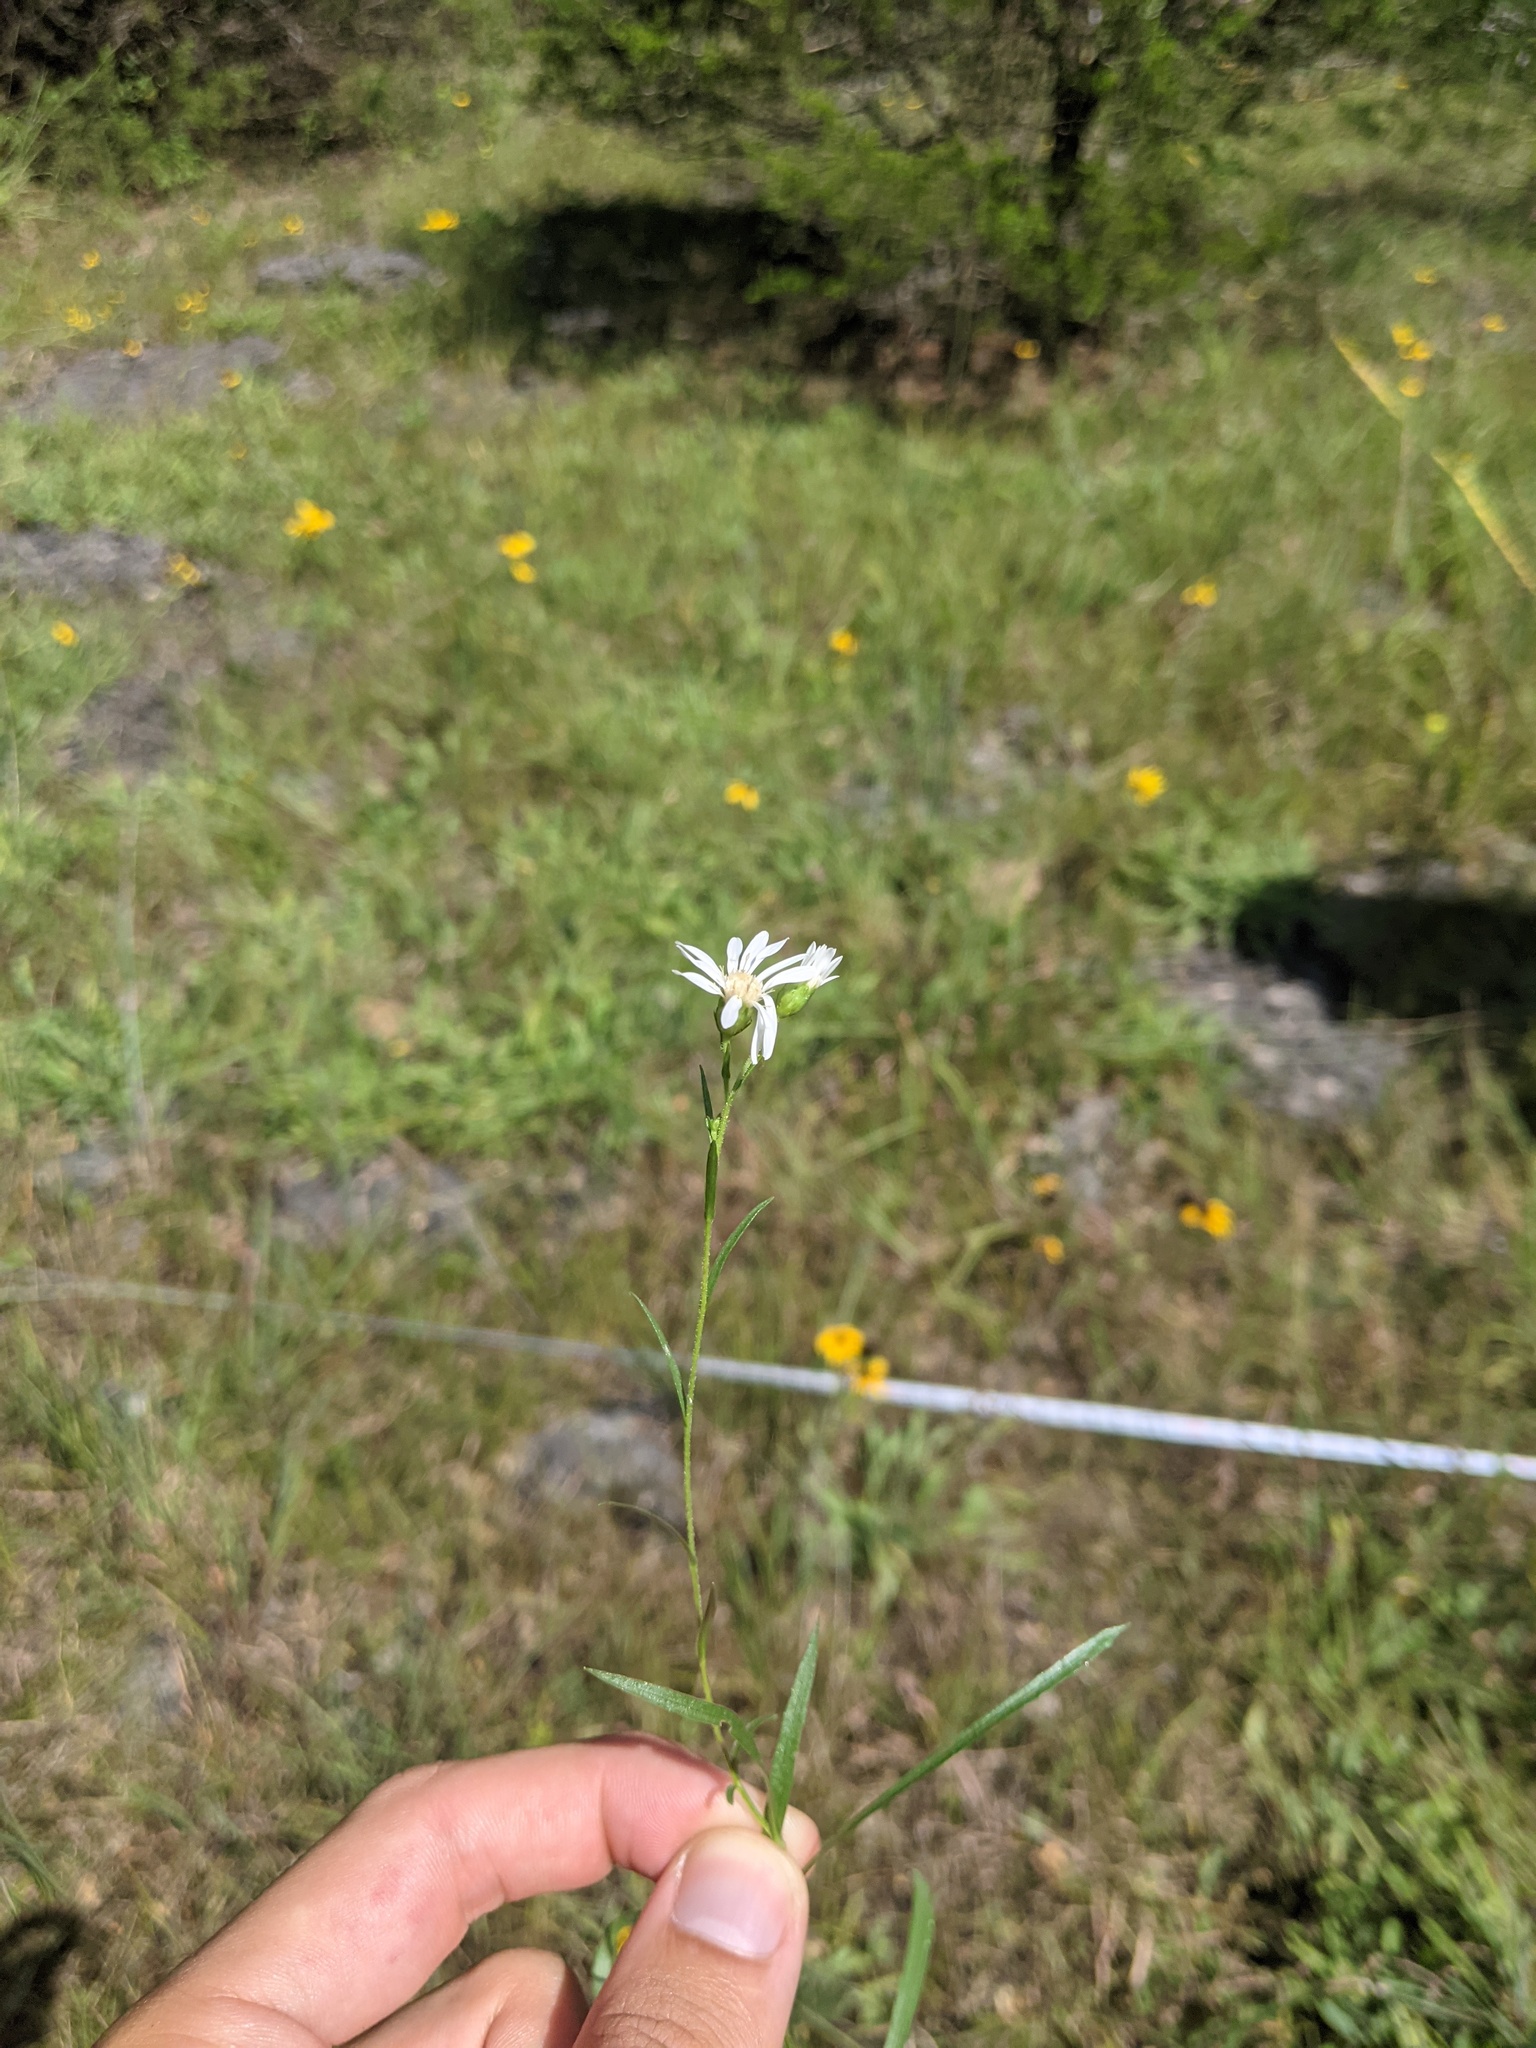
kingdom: Plantae
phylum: Tracheophyta
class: Magnoliopsida
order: Asterales
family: Asteraceae
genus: Solidago
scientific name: Solidago ptarmicoides
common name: White flat-top goldenrod
